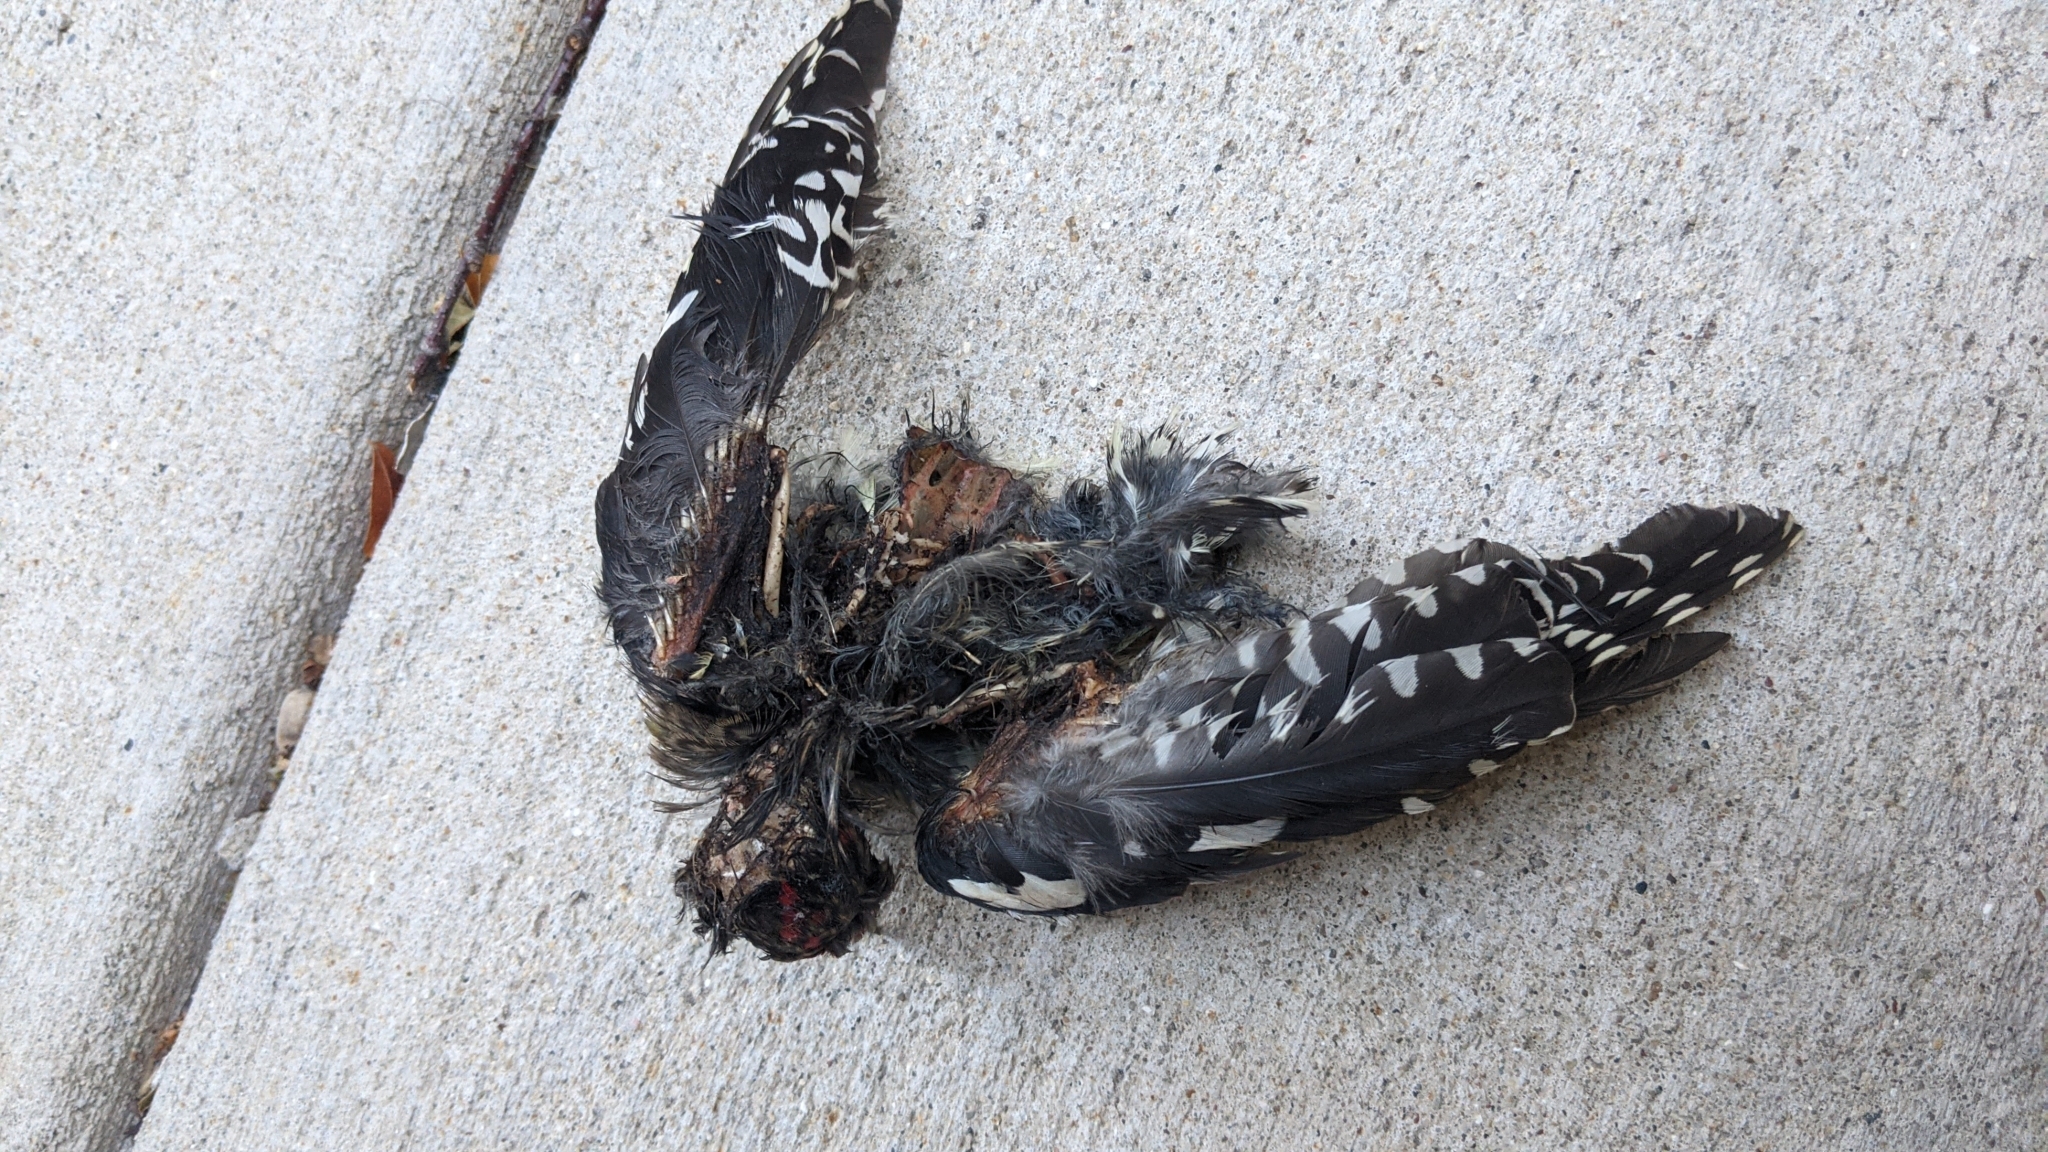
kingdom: Animalia
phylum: Chordata
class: Aves
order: Piciformes
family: Picidae
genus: Sphyrapicus
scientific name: Sphyrapicus varius
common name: Yellow-bellied sapsucker
